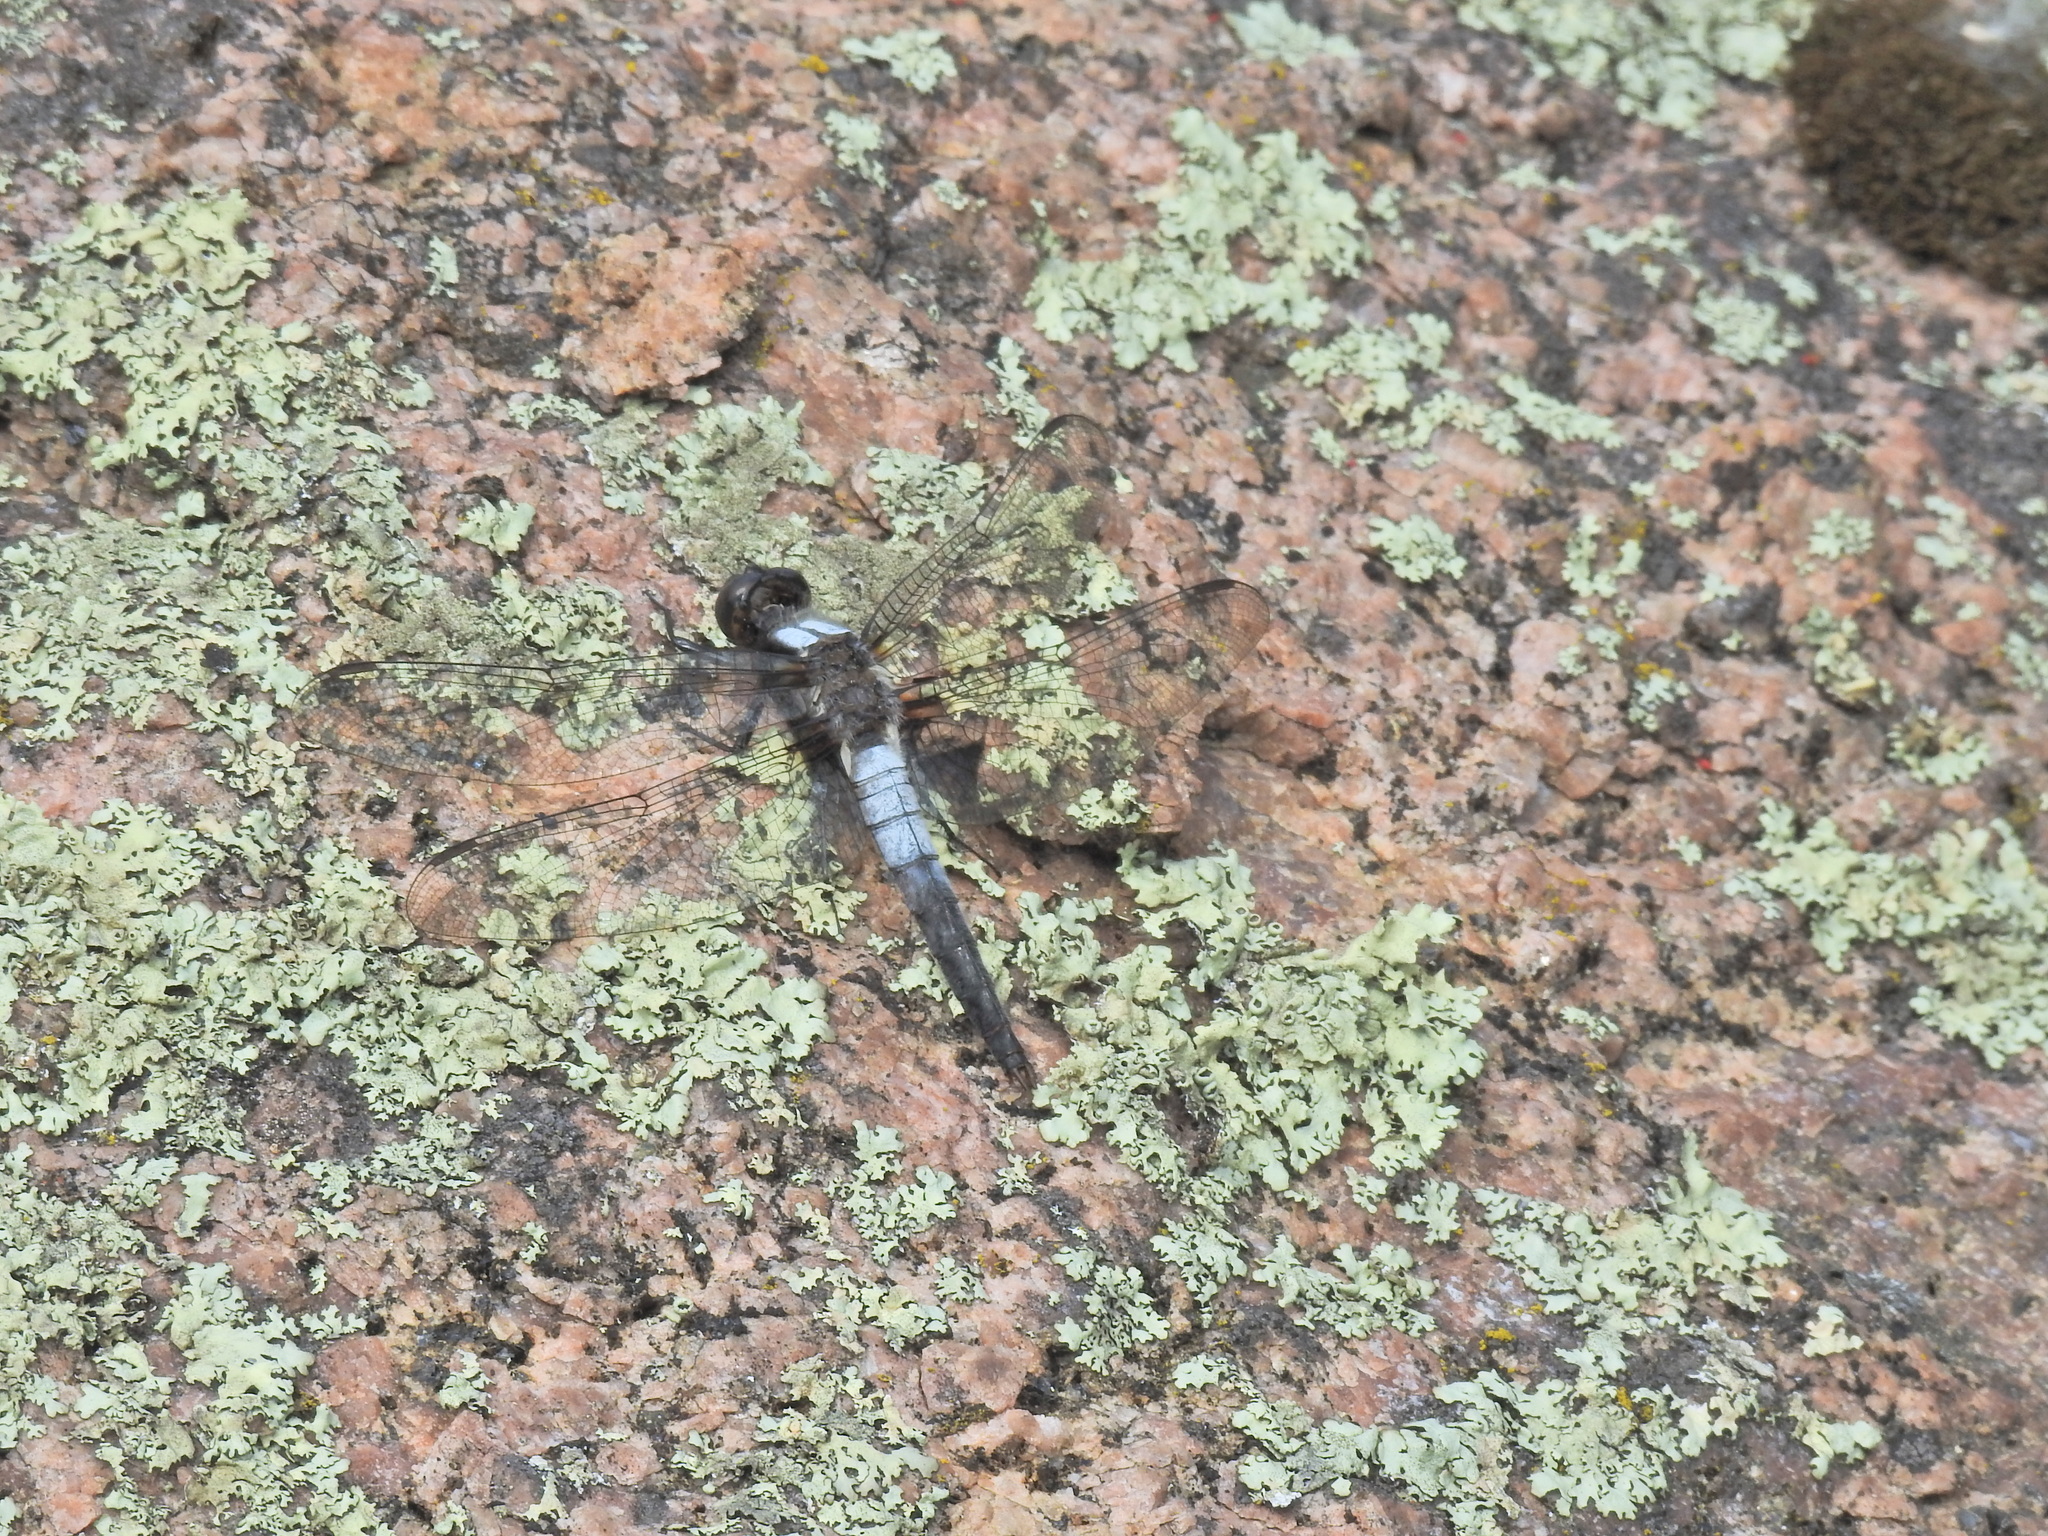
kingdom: Animalia
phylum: Arthropoda
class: Insecta
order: Odonata
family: Libellulidae
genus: Ladona
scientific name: Ladona julia
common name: Chalk-fronted corporal
